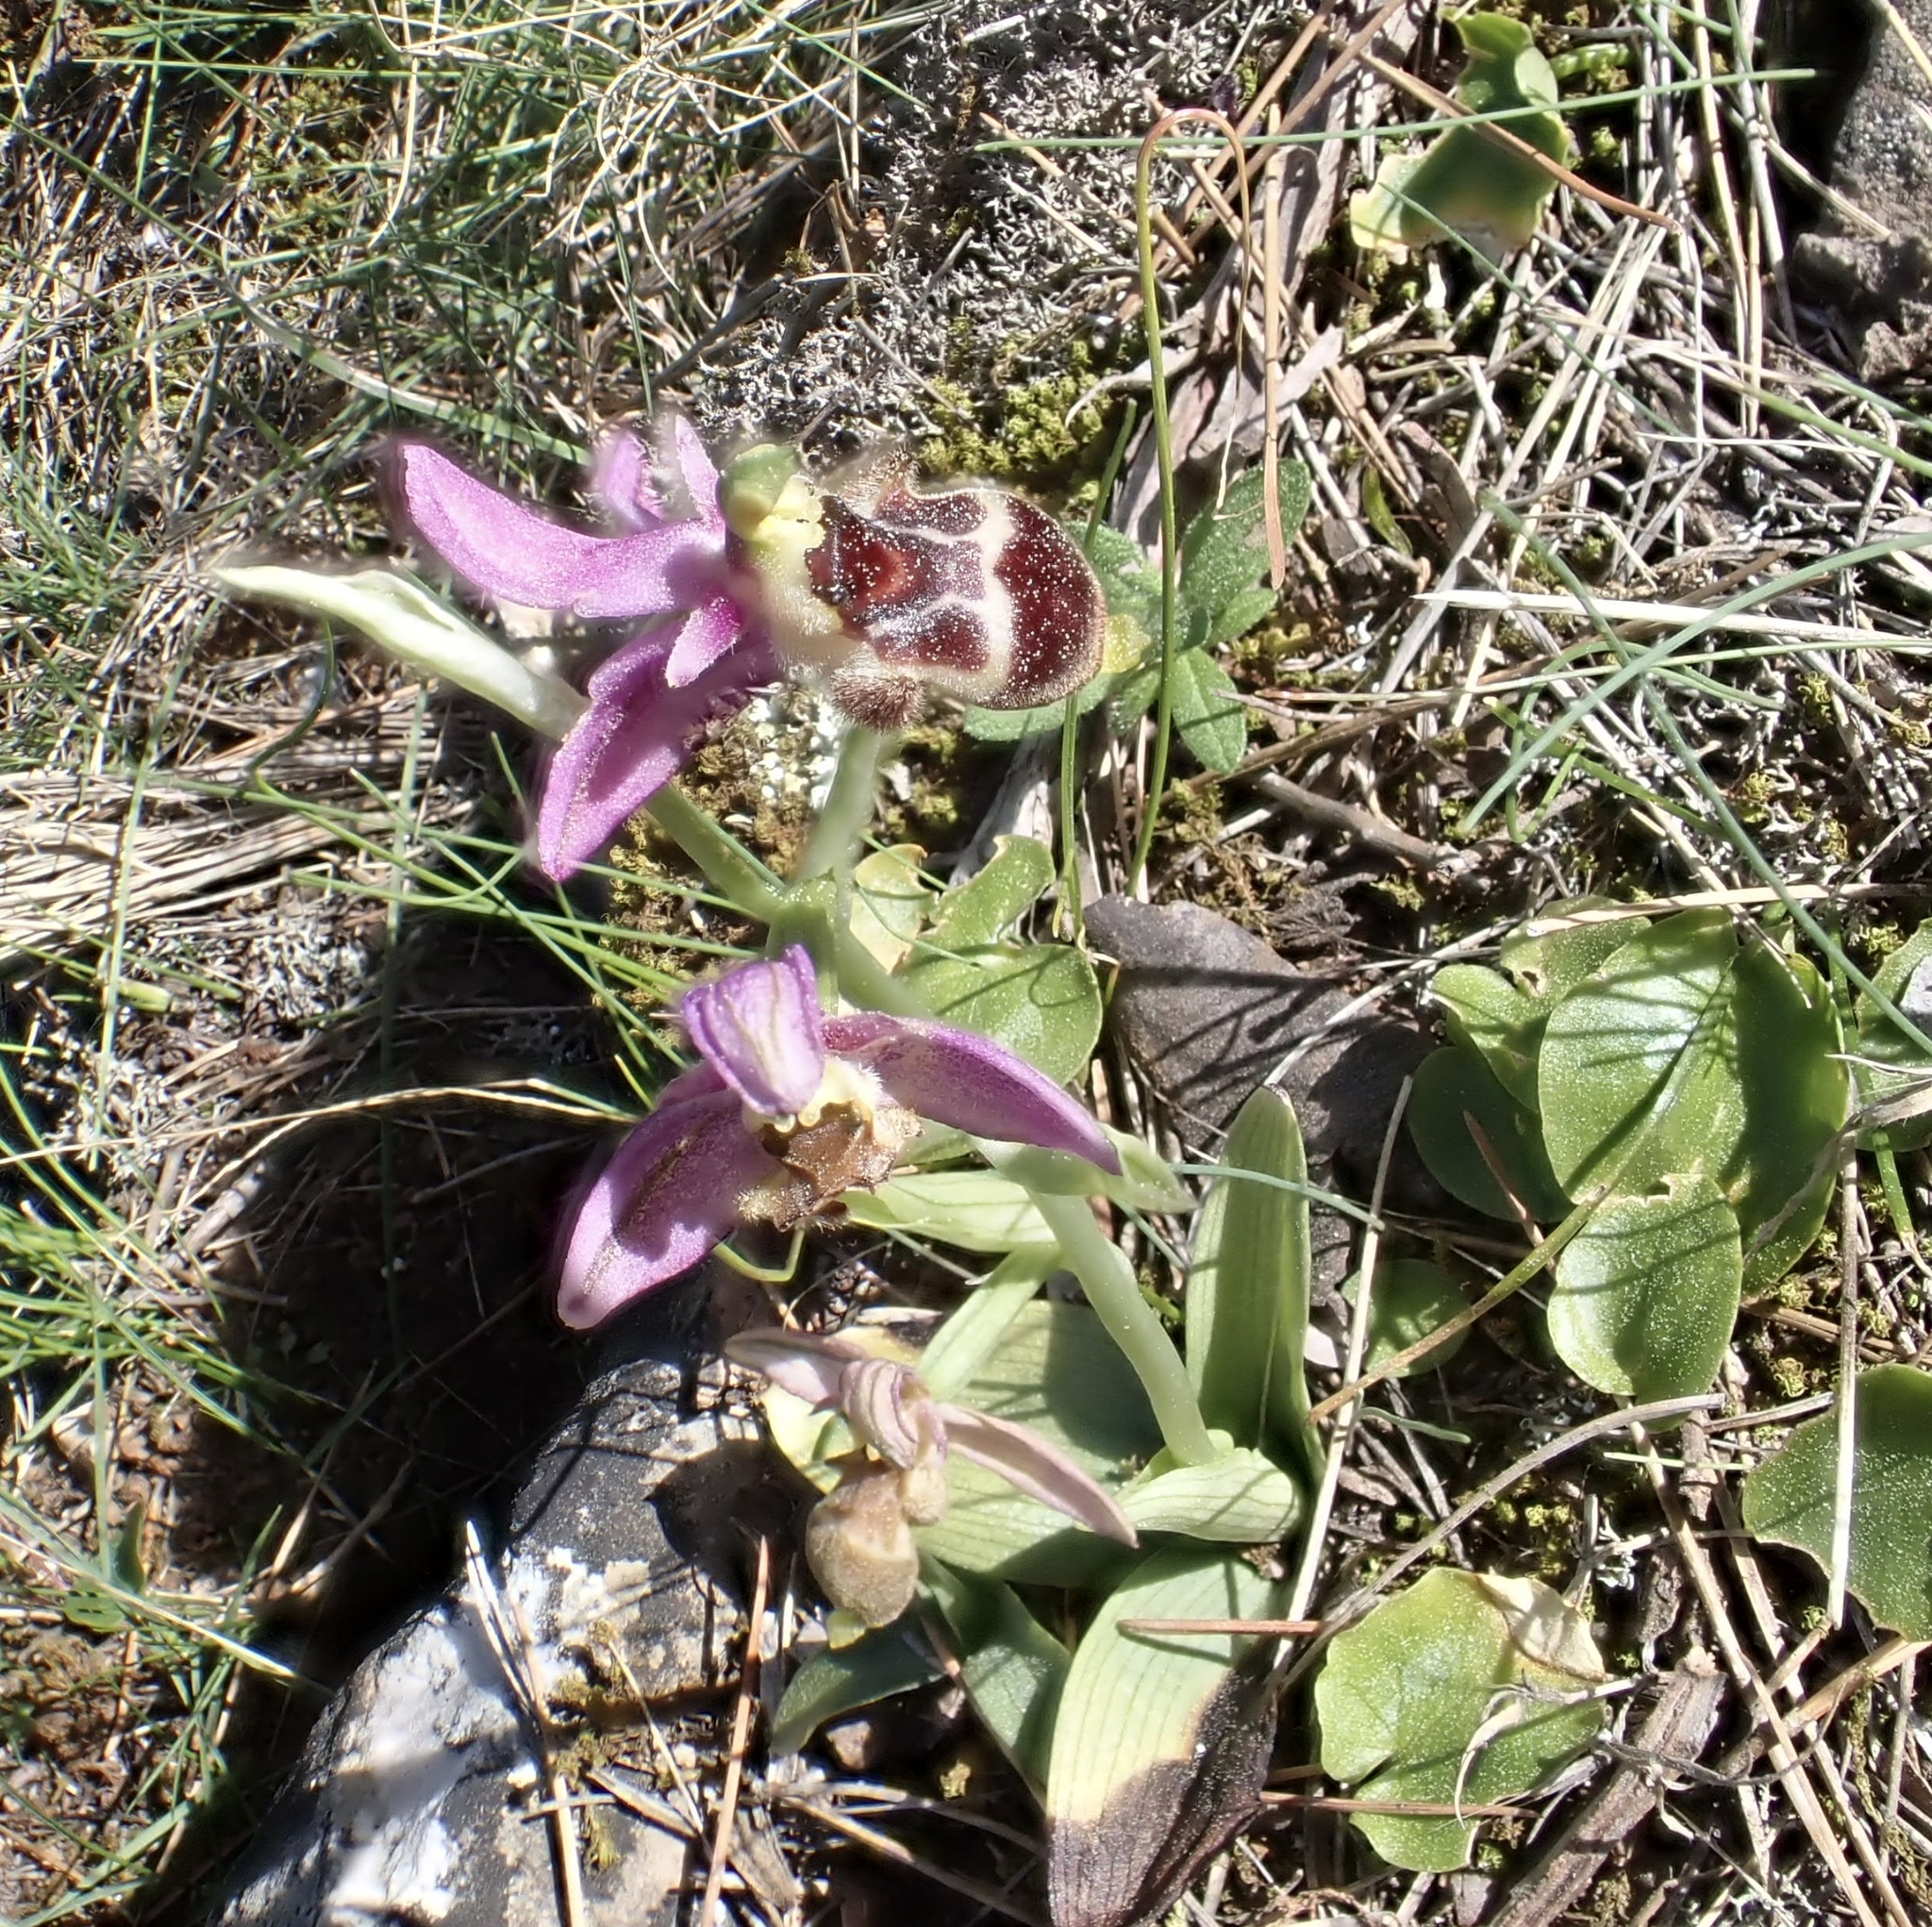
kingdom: Plantae
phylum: Tracheophyta
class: Liliopsida
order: Asparagales
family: Orchidaceae
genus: Ophrys
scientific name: Ophrys scolopax
